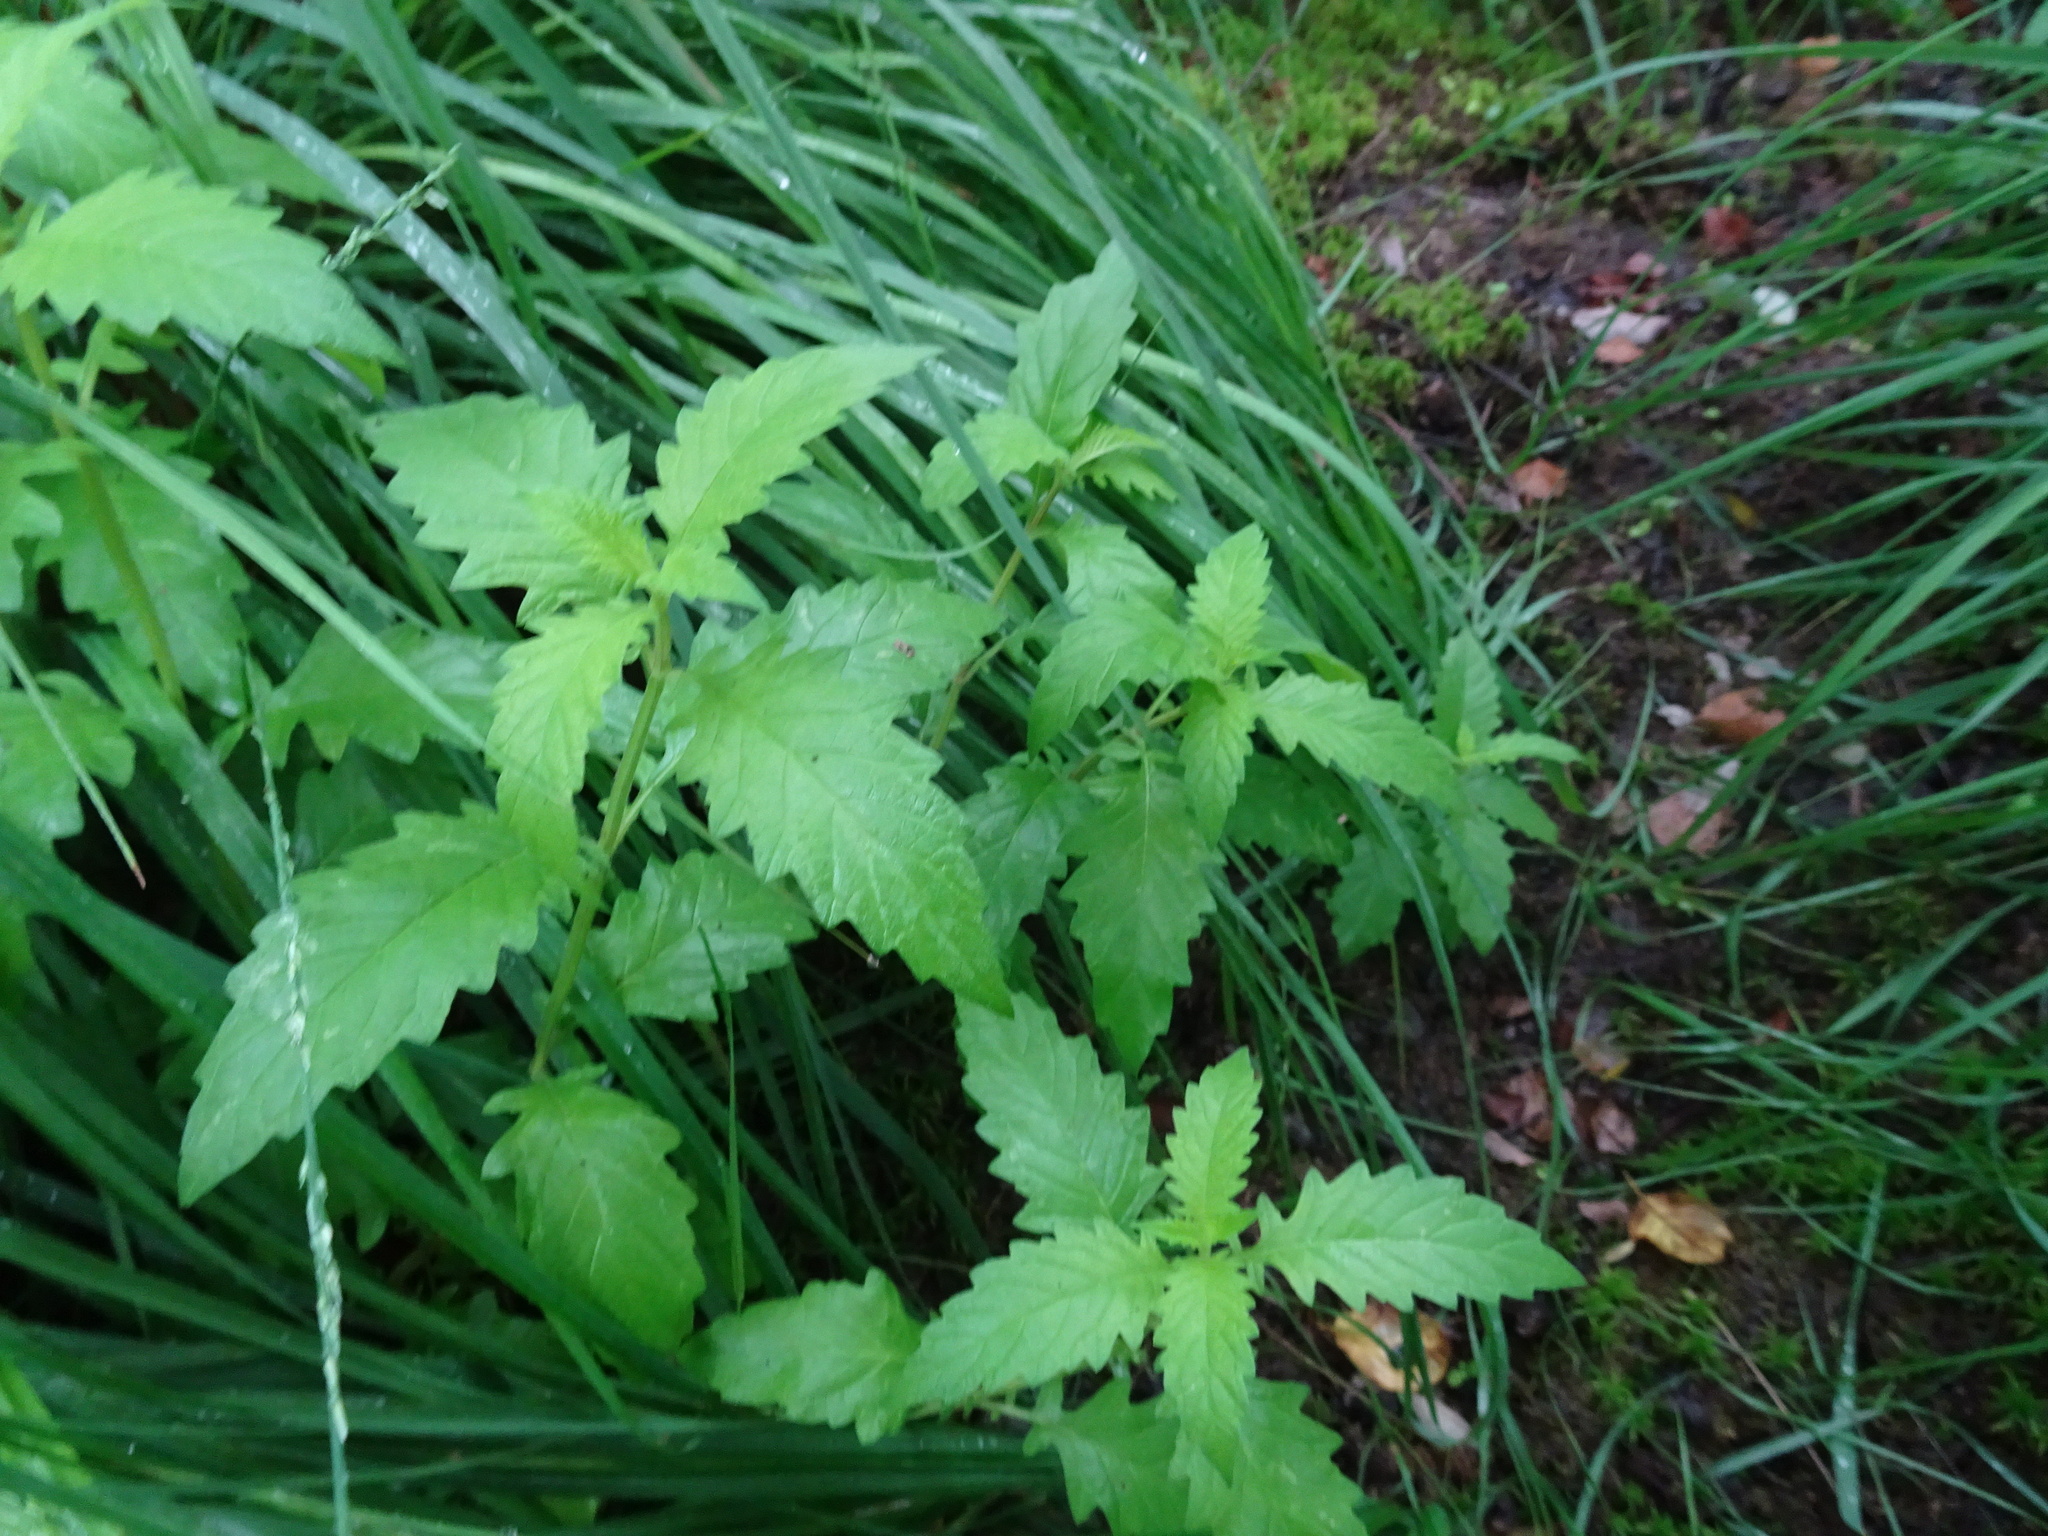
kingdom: Plantae
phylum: Tracheophyta
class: Magnoliopsida
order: Lamiales
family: Lamiaceae
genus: Lycopus
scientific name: Lycopus europaeus
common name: European bugleweed
